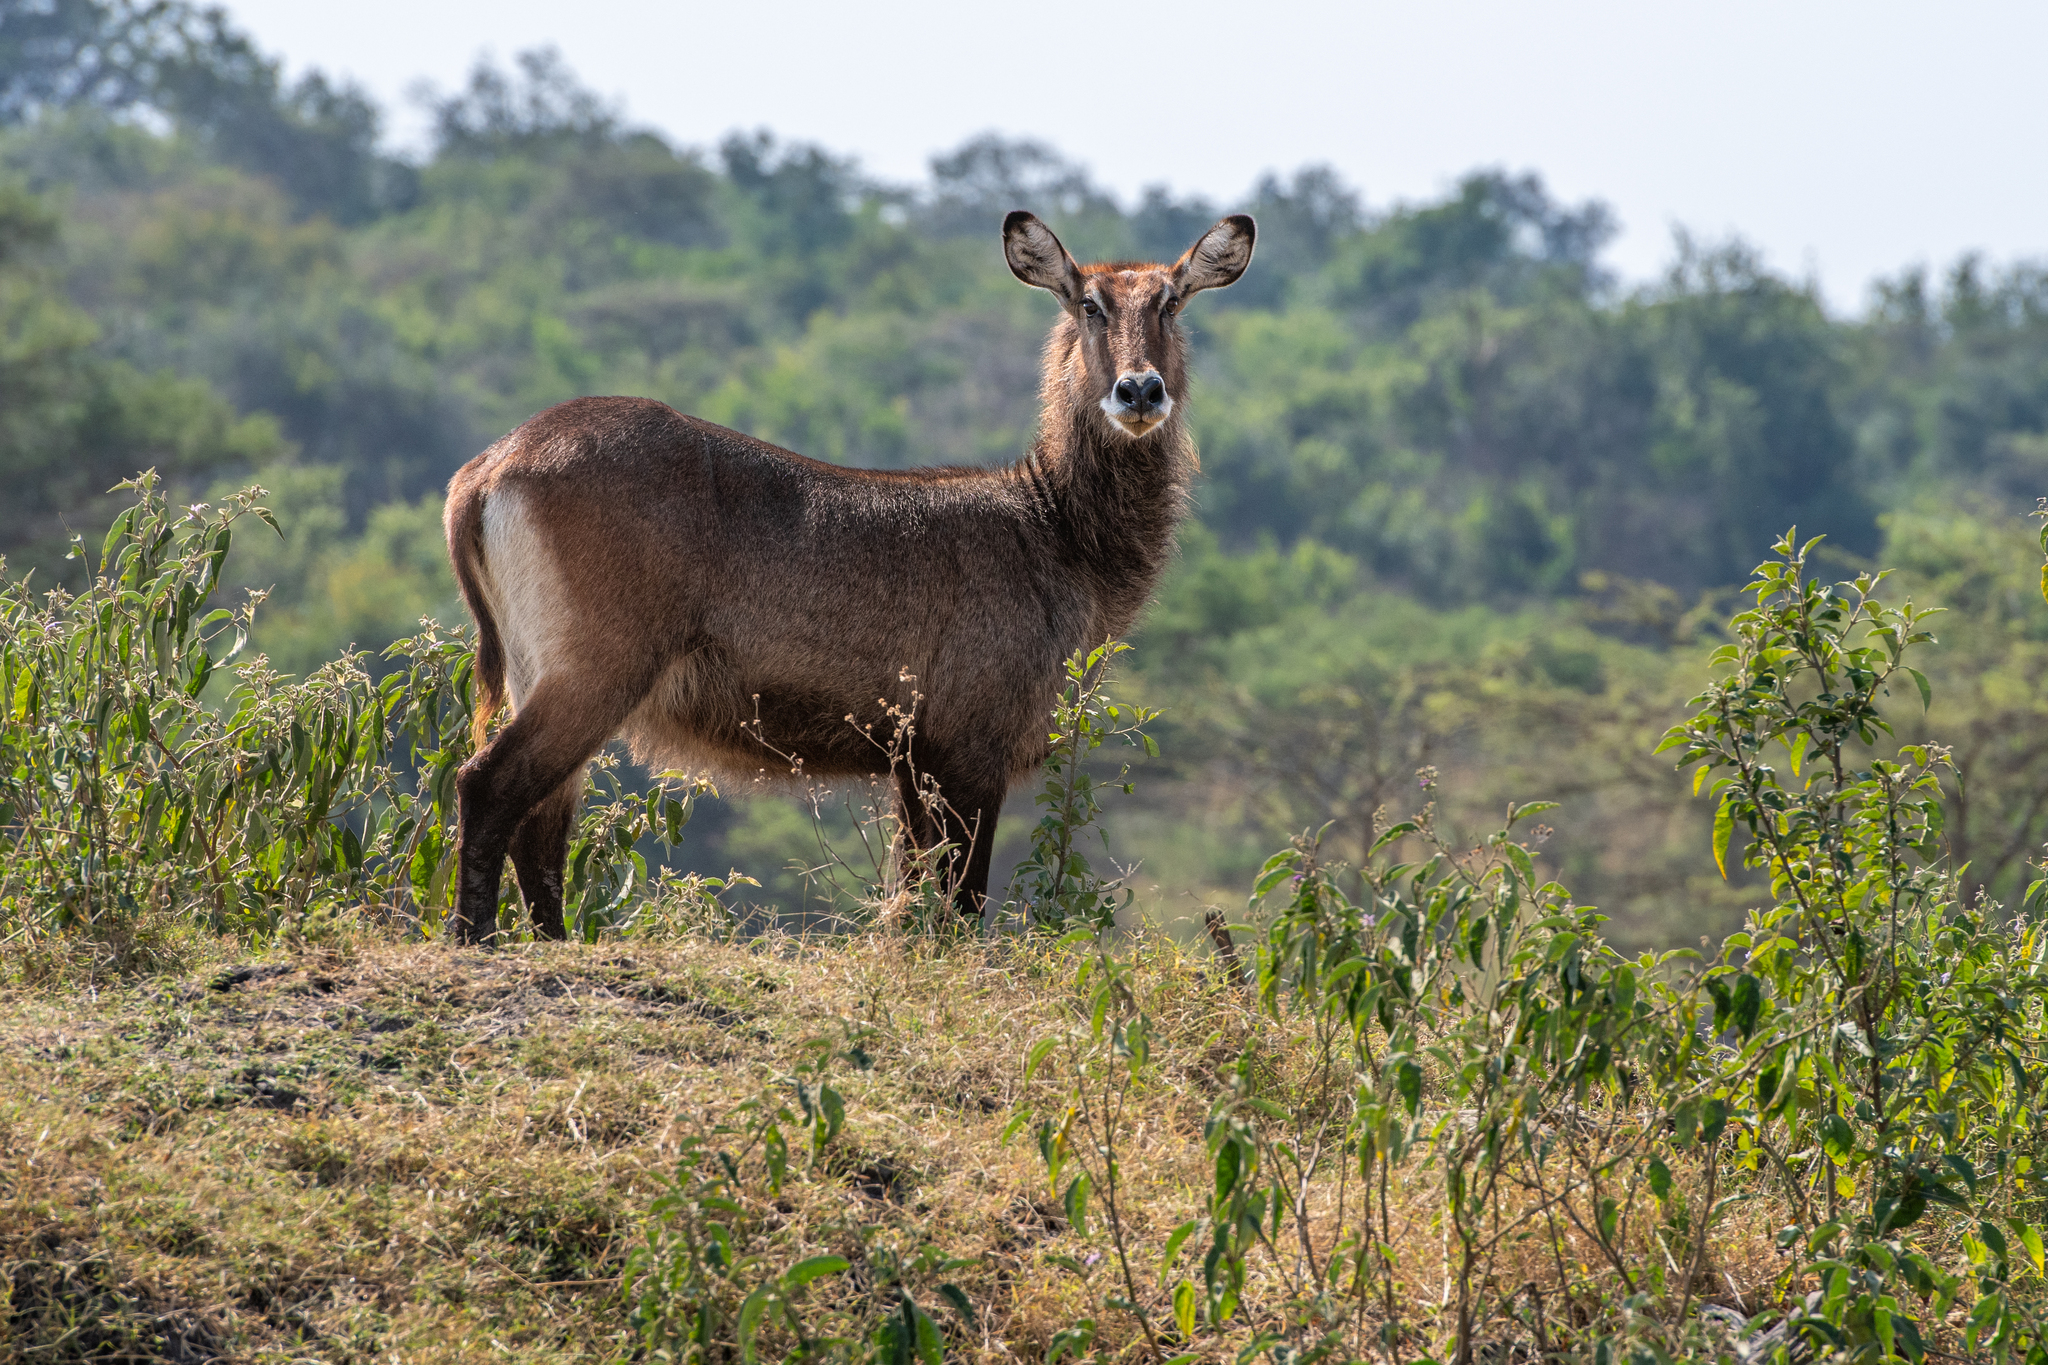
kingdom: Animalia
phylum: Chordata
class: Mammalia
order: Artiodactyla
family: Bovidae
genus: Kobus
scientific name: Kobus ellipsiprymnus
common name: Waterbuck
